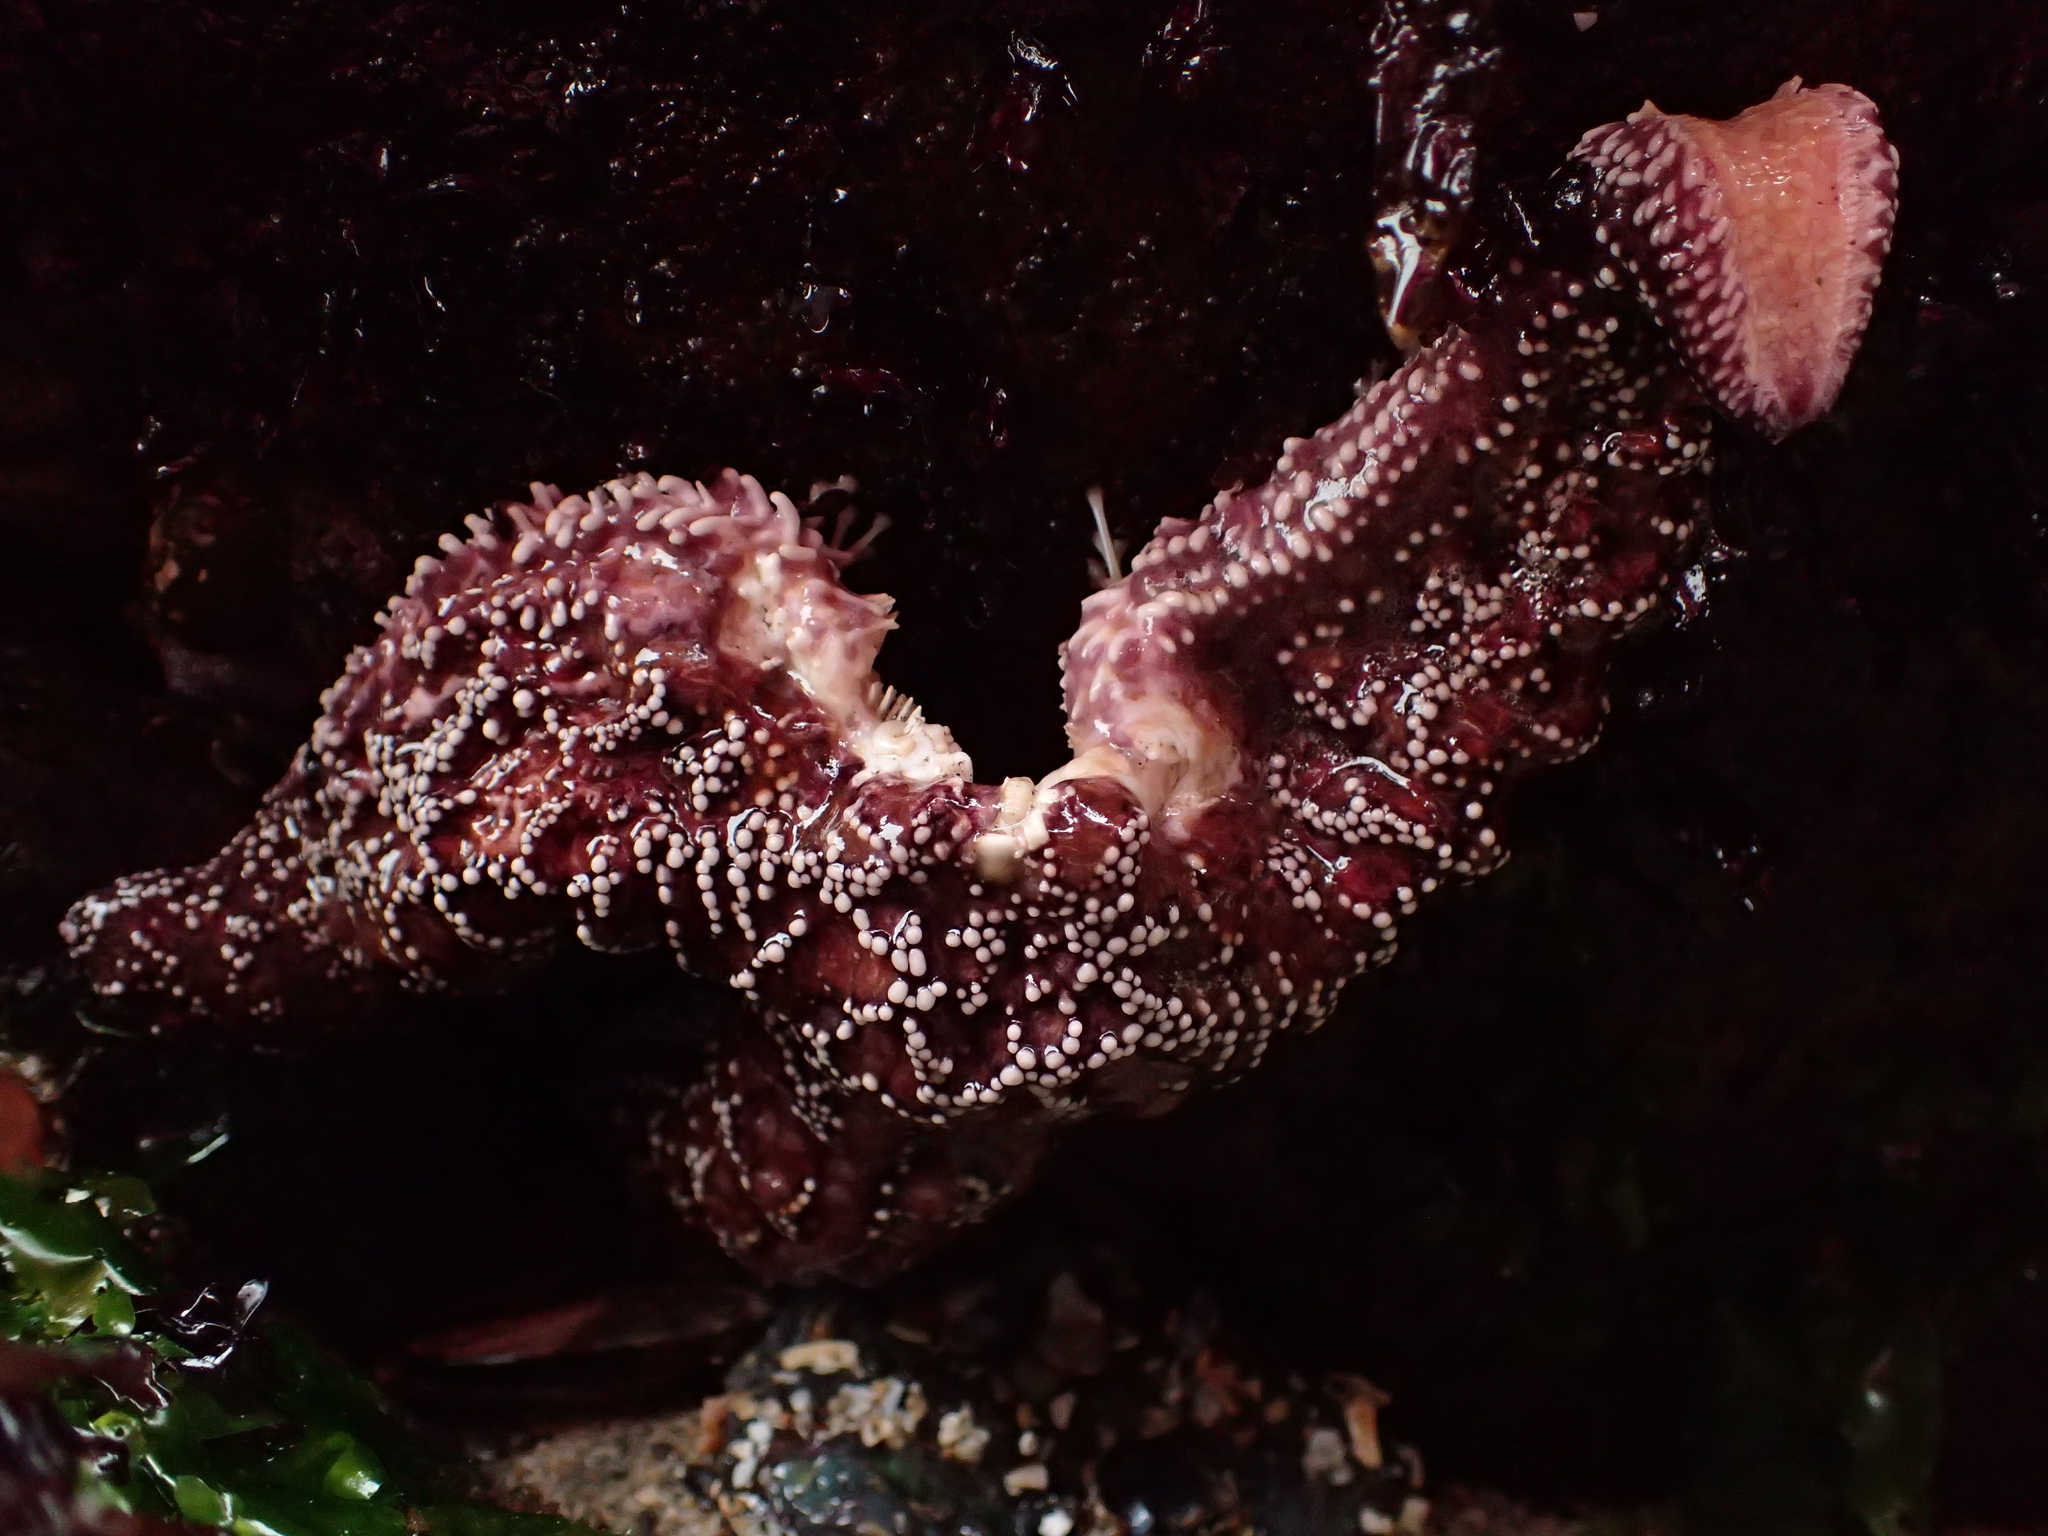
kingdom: Animalia
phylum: Echinodermata
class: Asteroidea
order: Forcipulatida
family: Asteriidae
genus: Pisaster
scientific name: Pisaster ochraceus
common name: Ochre stars
